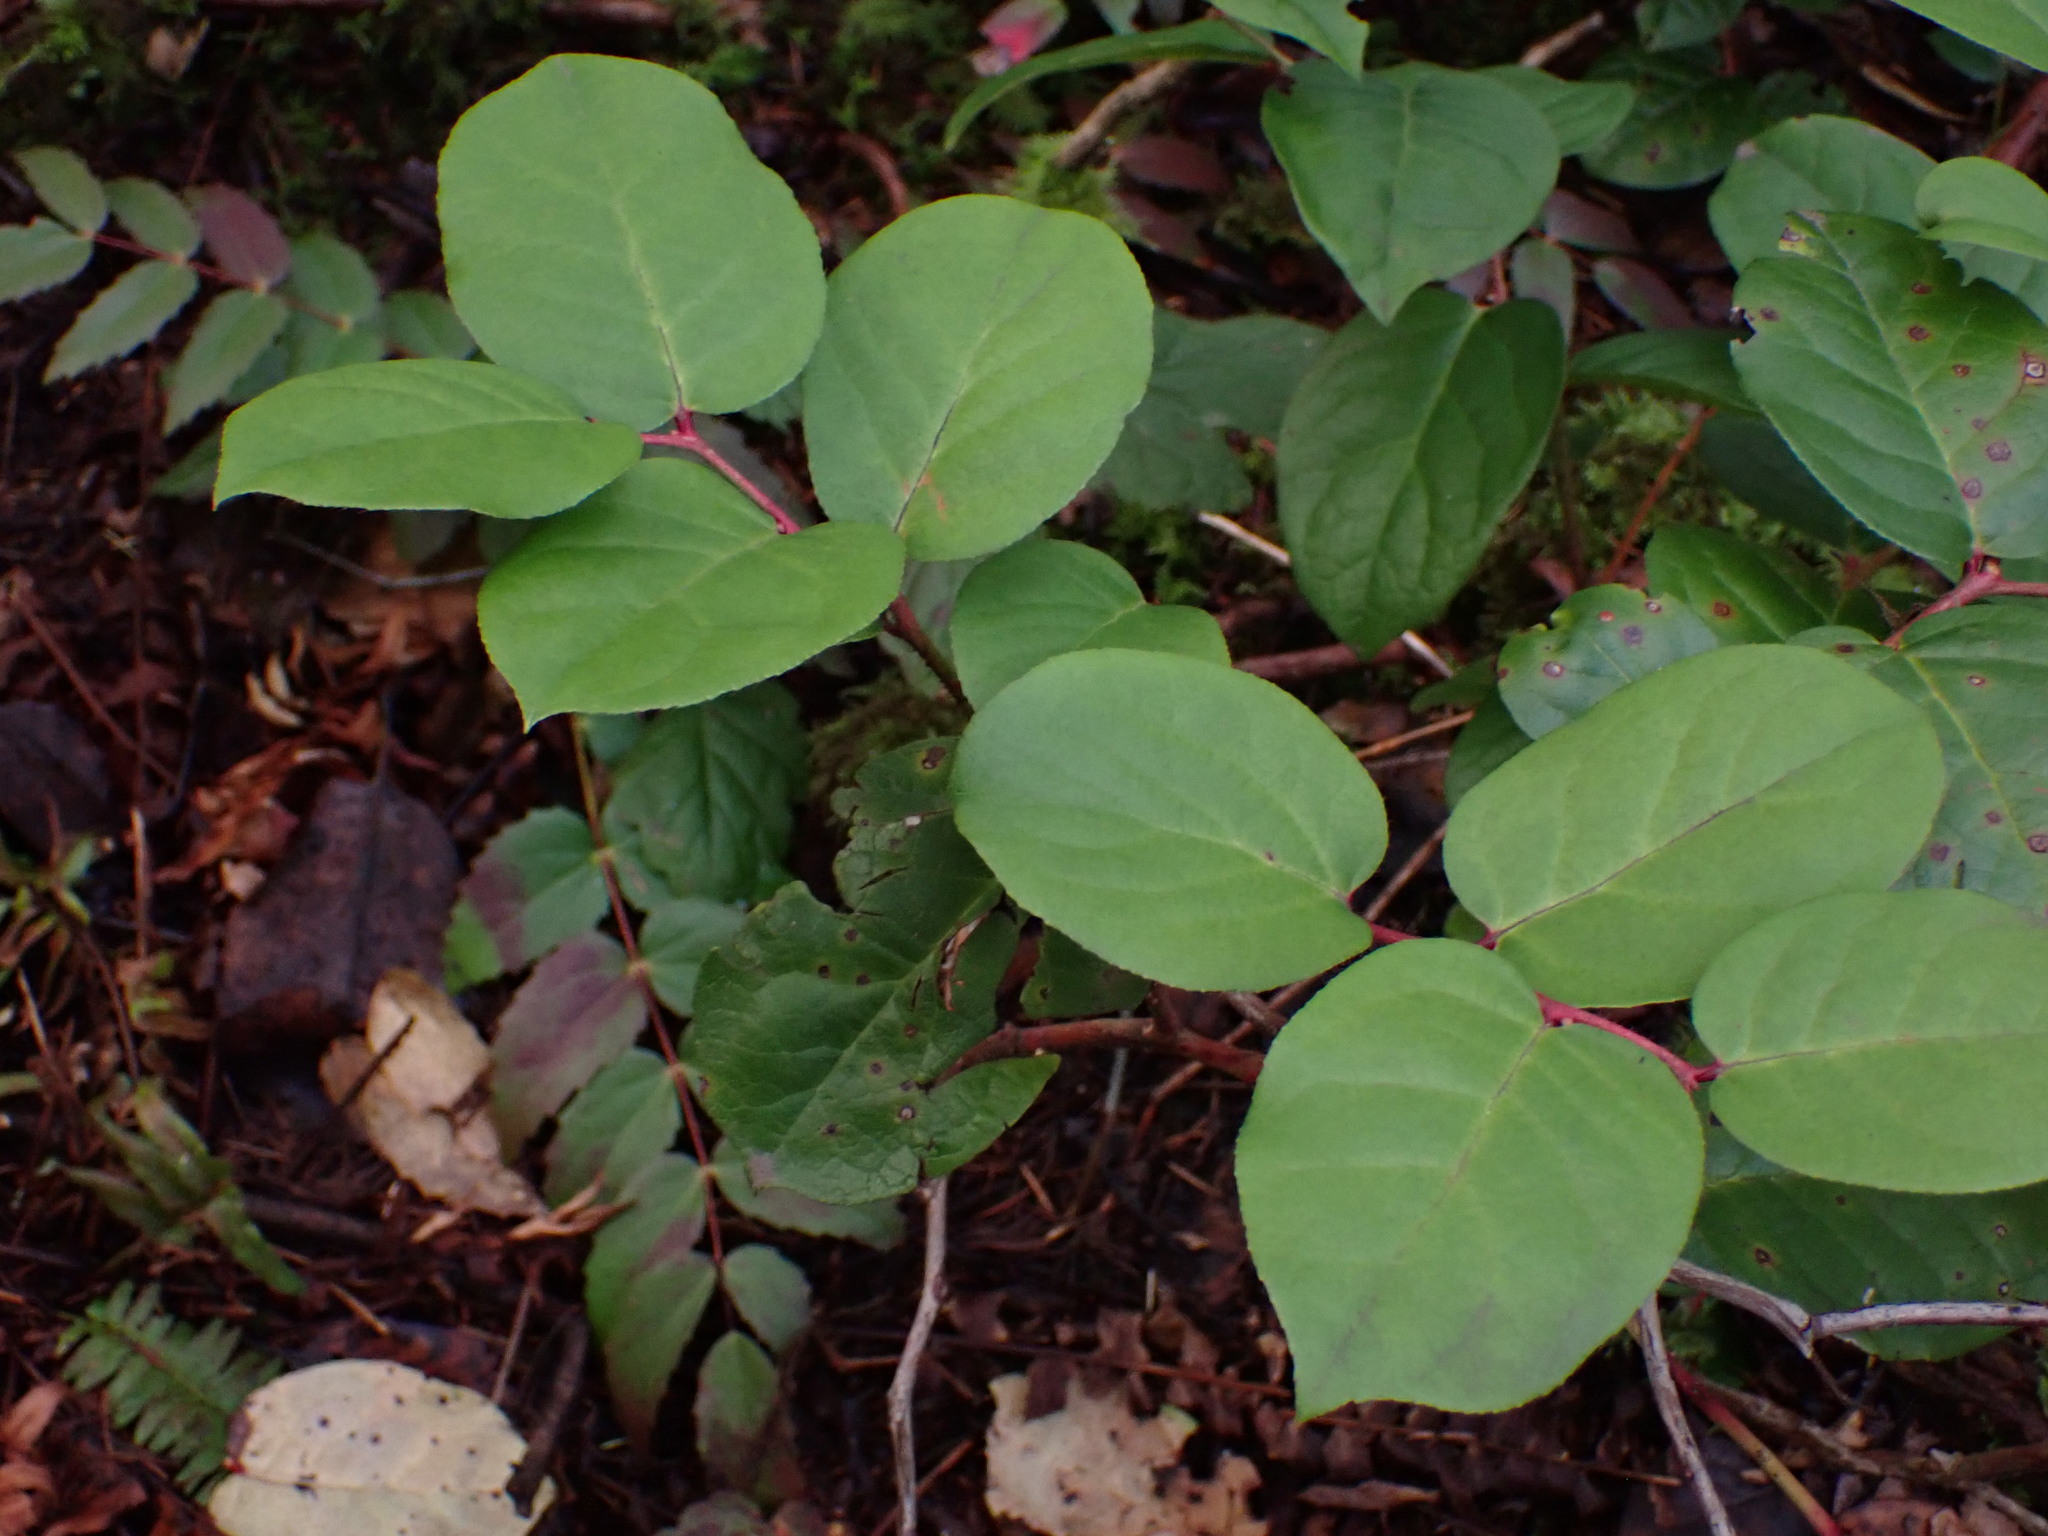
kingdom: Plantae
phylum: Tracheophyta
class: Magnoliopsida
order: Ericales
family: Ericaceae
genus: Gaultheria
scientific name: Gaultheria shallon
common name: Shallon
